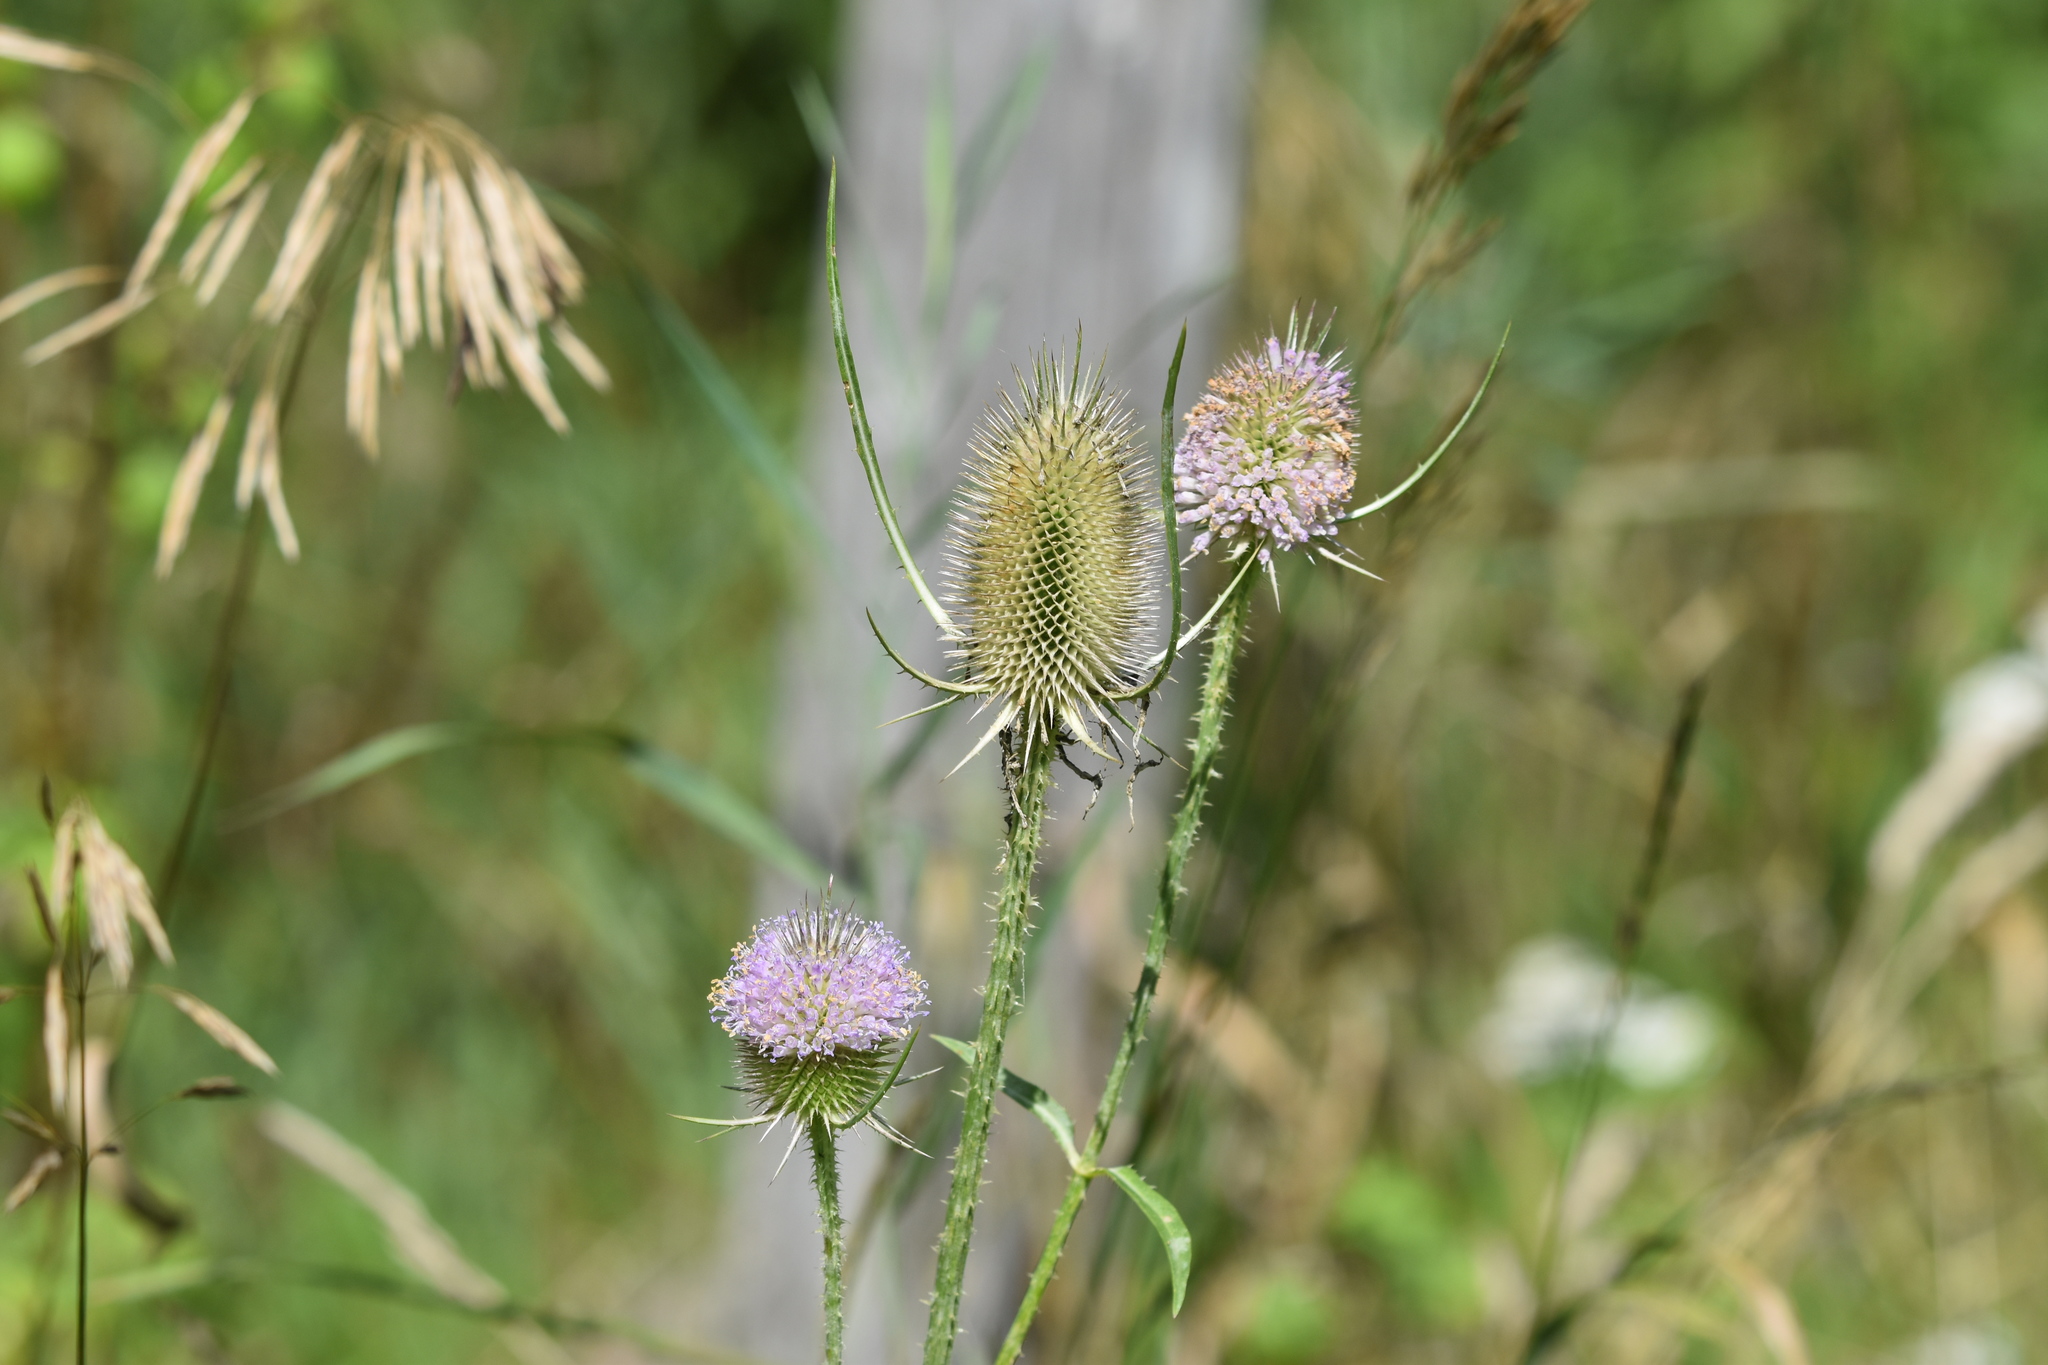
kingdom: Plantae
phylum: Tracheophyta
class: Magnoliopsida
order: Dipsacales
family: Caprifoliaceae
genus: Dipsacus
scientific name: Dipsacus fullonum
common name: Teasel
